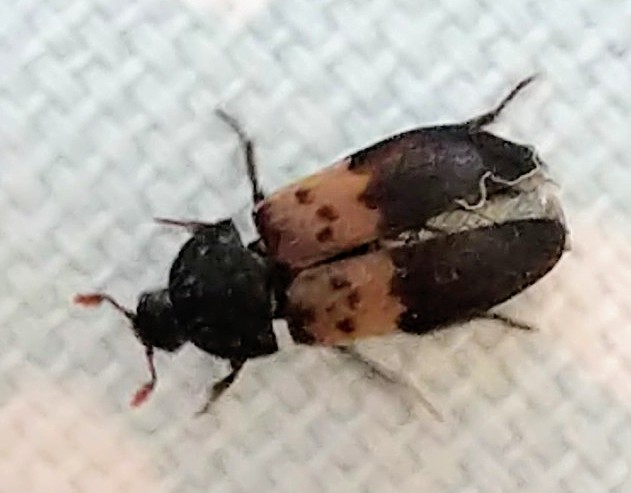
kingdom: Animalia
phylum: Arthropoda
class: Insecta
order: Coleoptera
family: Dermestidae
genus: Dermestes
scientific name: Dermestes lardarius
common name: Larder beetle
